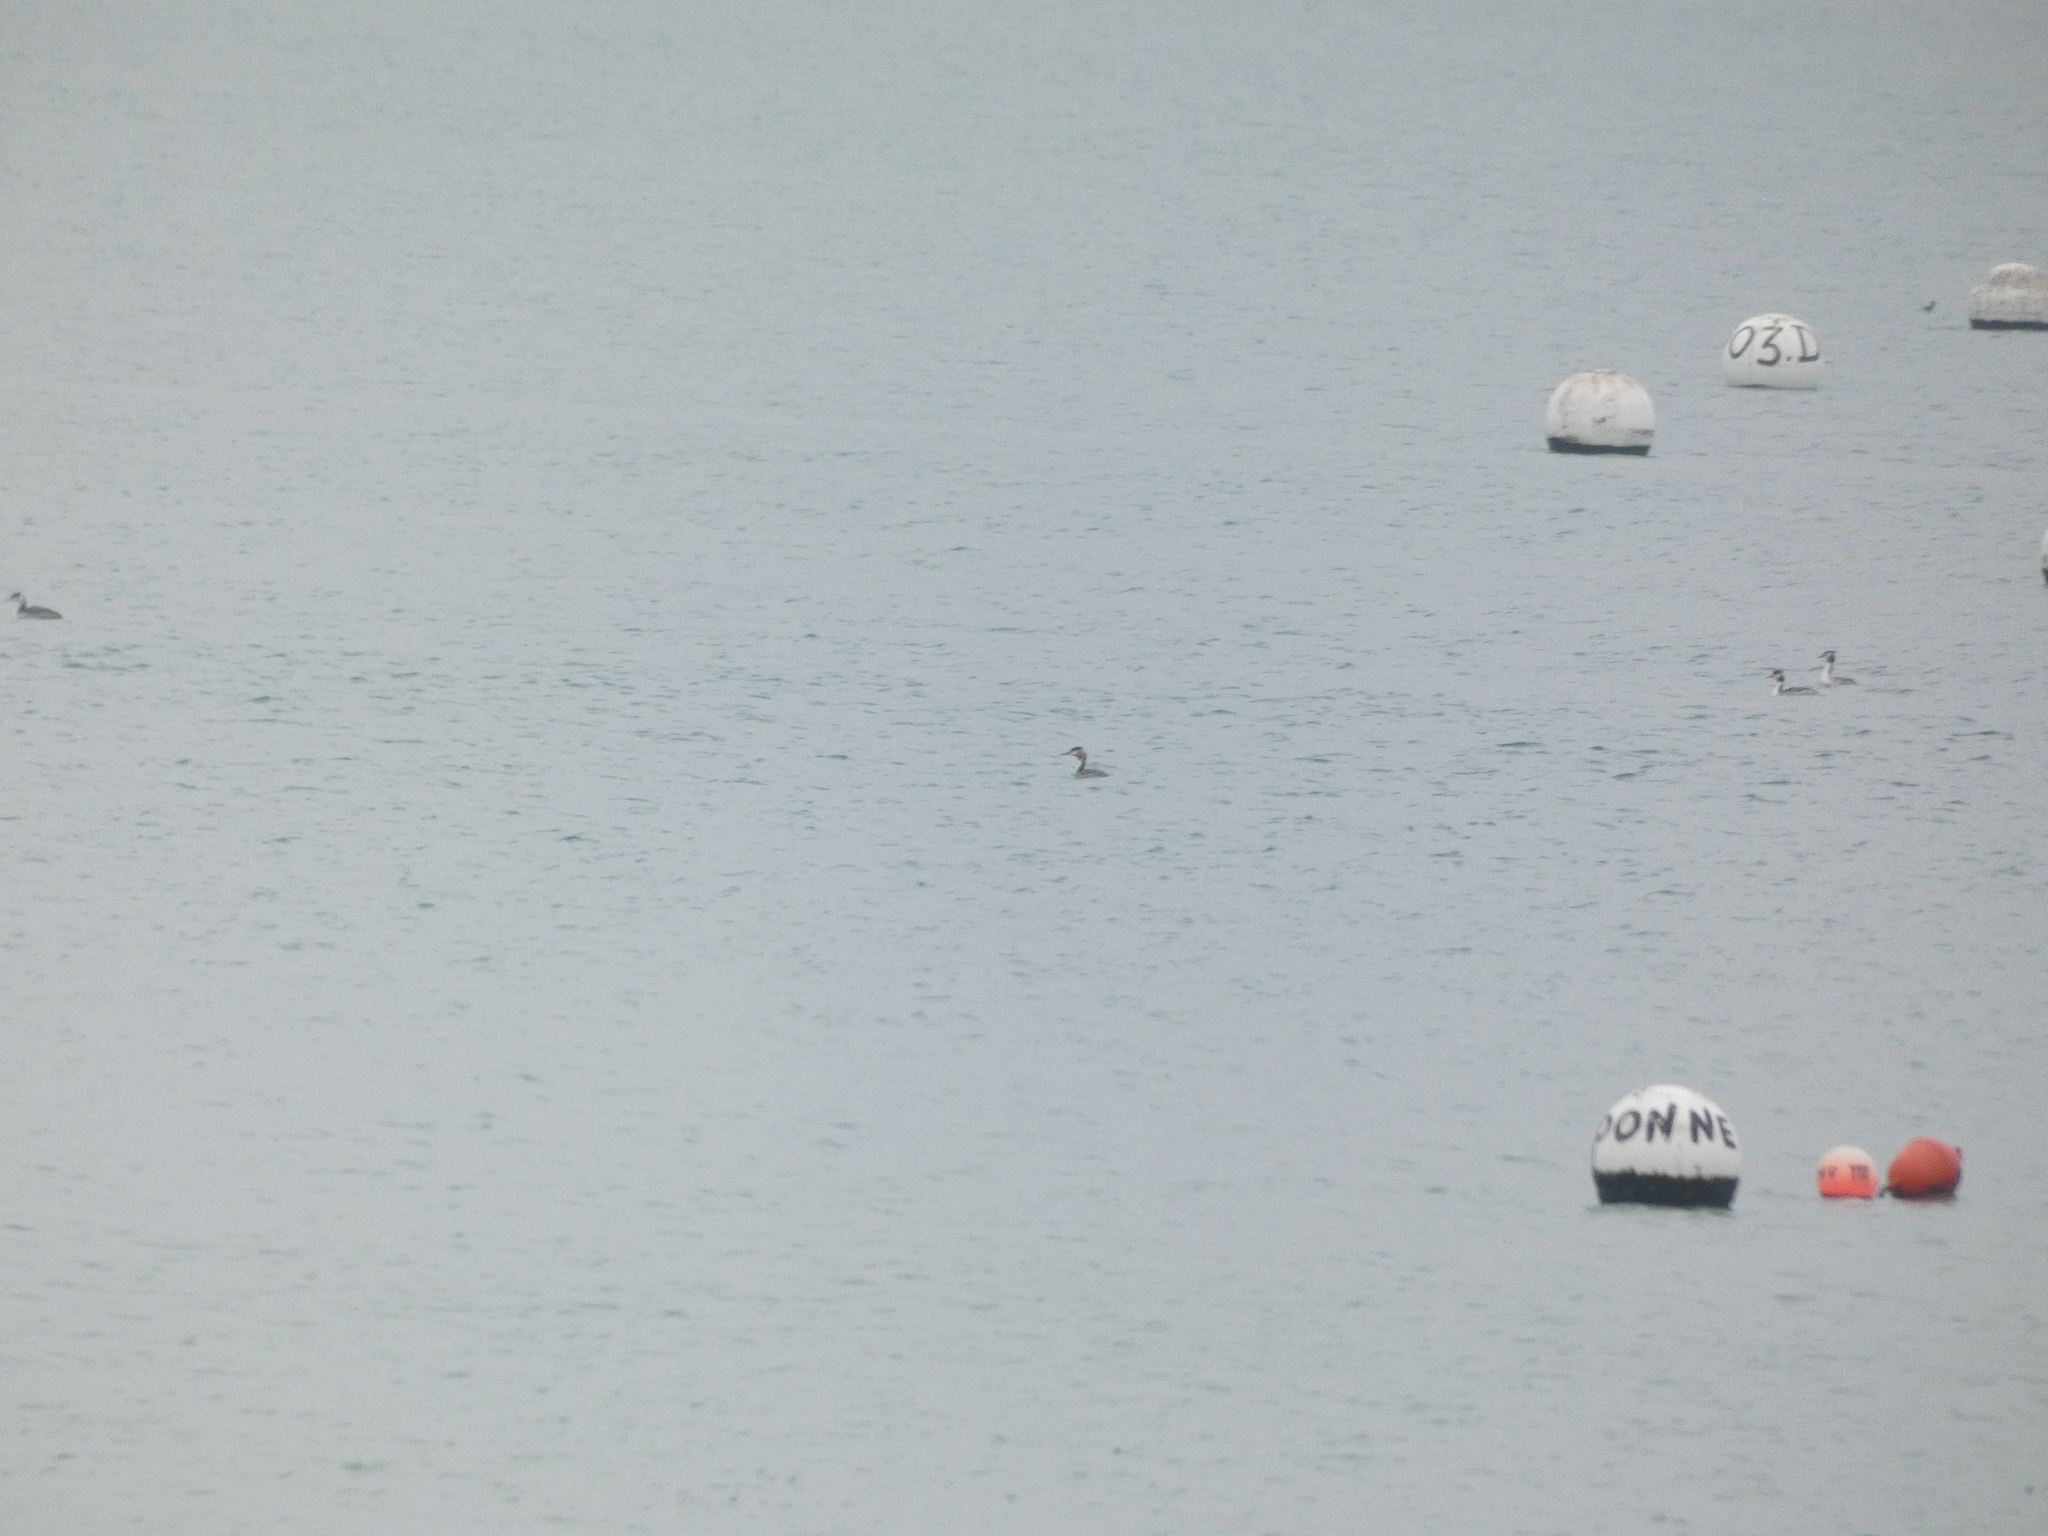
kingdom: Animalia
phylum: Chordata
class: Aves
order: Podicipediformes
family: Podicipedidae
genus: Podiceps
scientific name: Podiceps cristatus
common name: Great crested grebe
